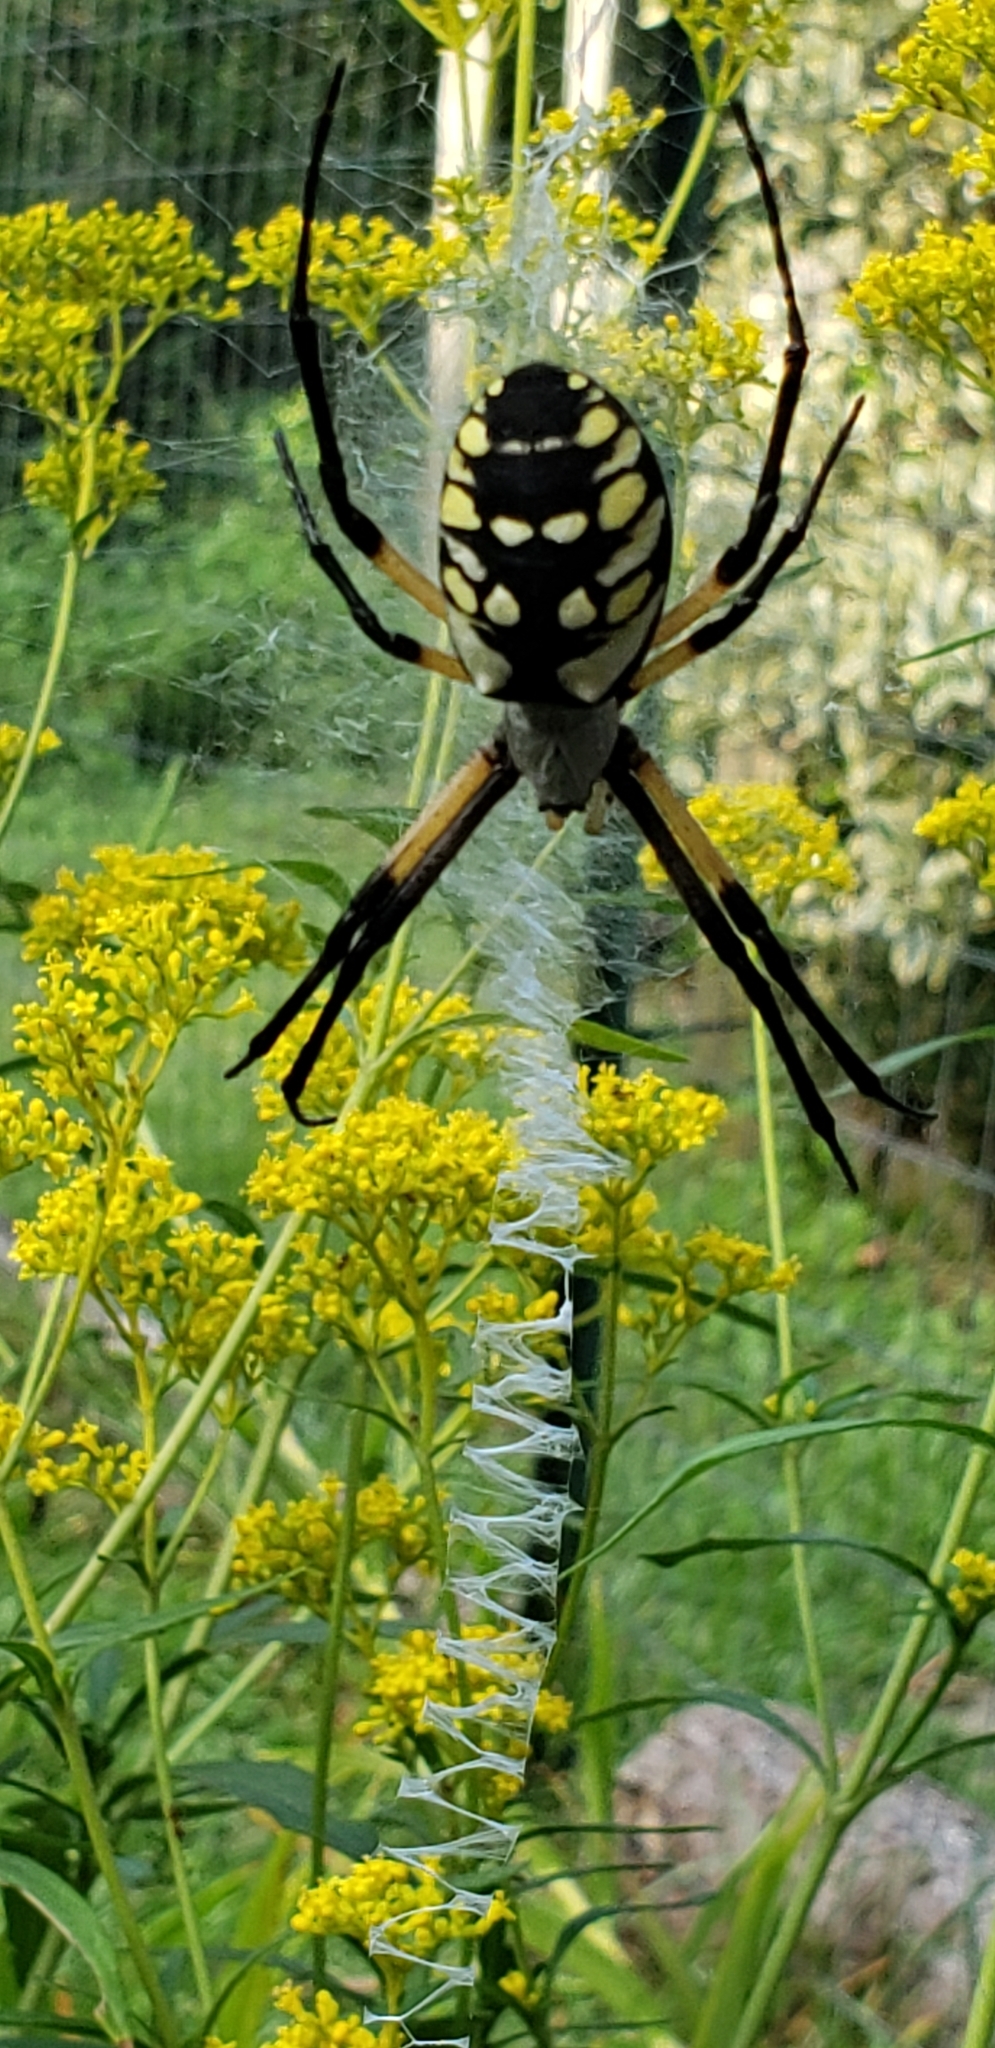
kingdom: Animalia
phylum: Arthropoda
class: Arachnida
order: Araneae
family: Araneidae
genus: Argiope
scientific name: Argiope aurantia
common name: Orb weavers
